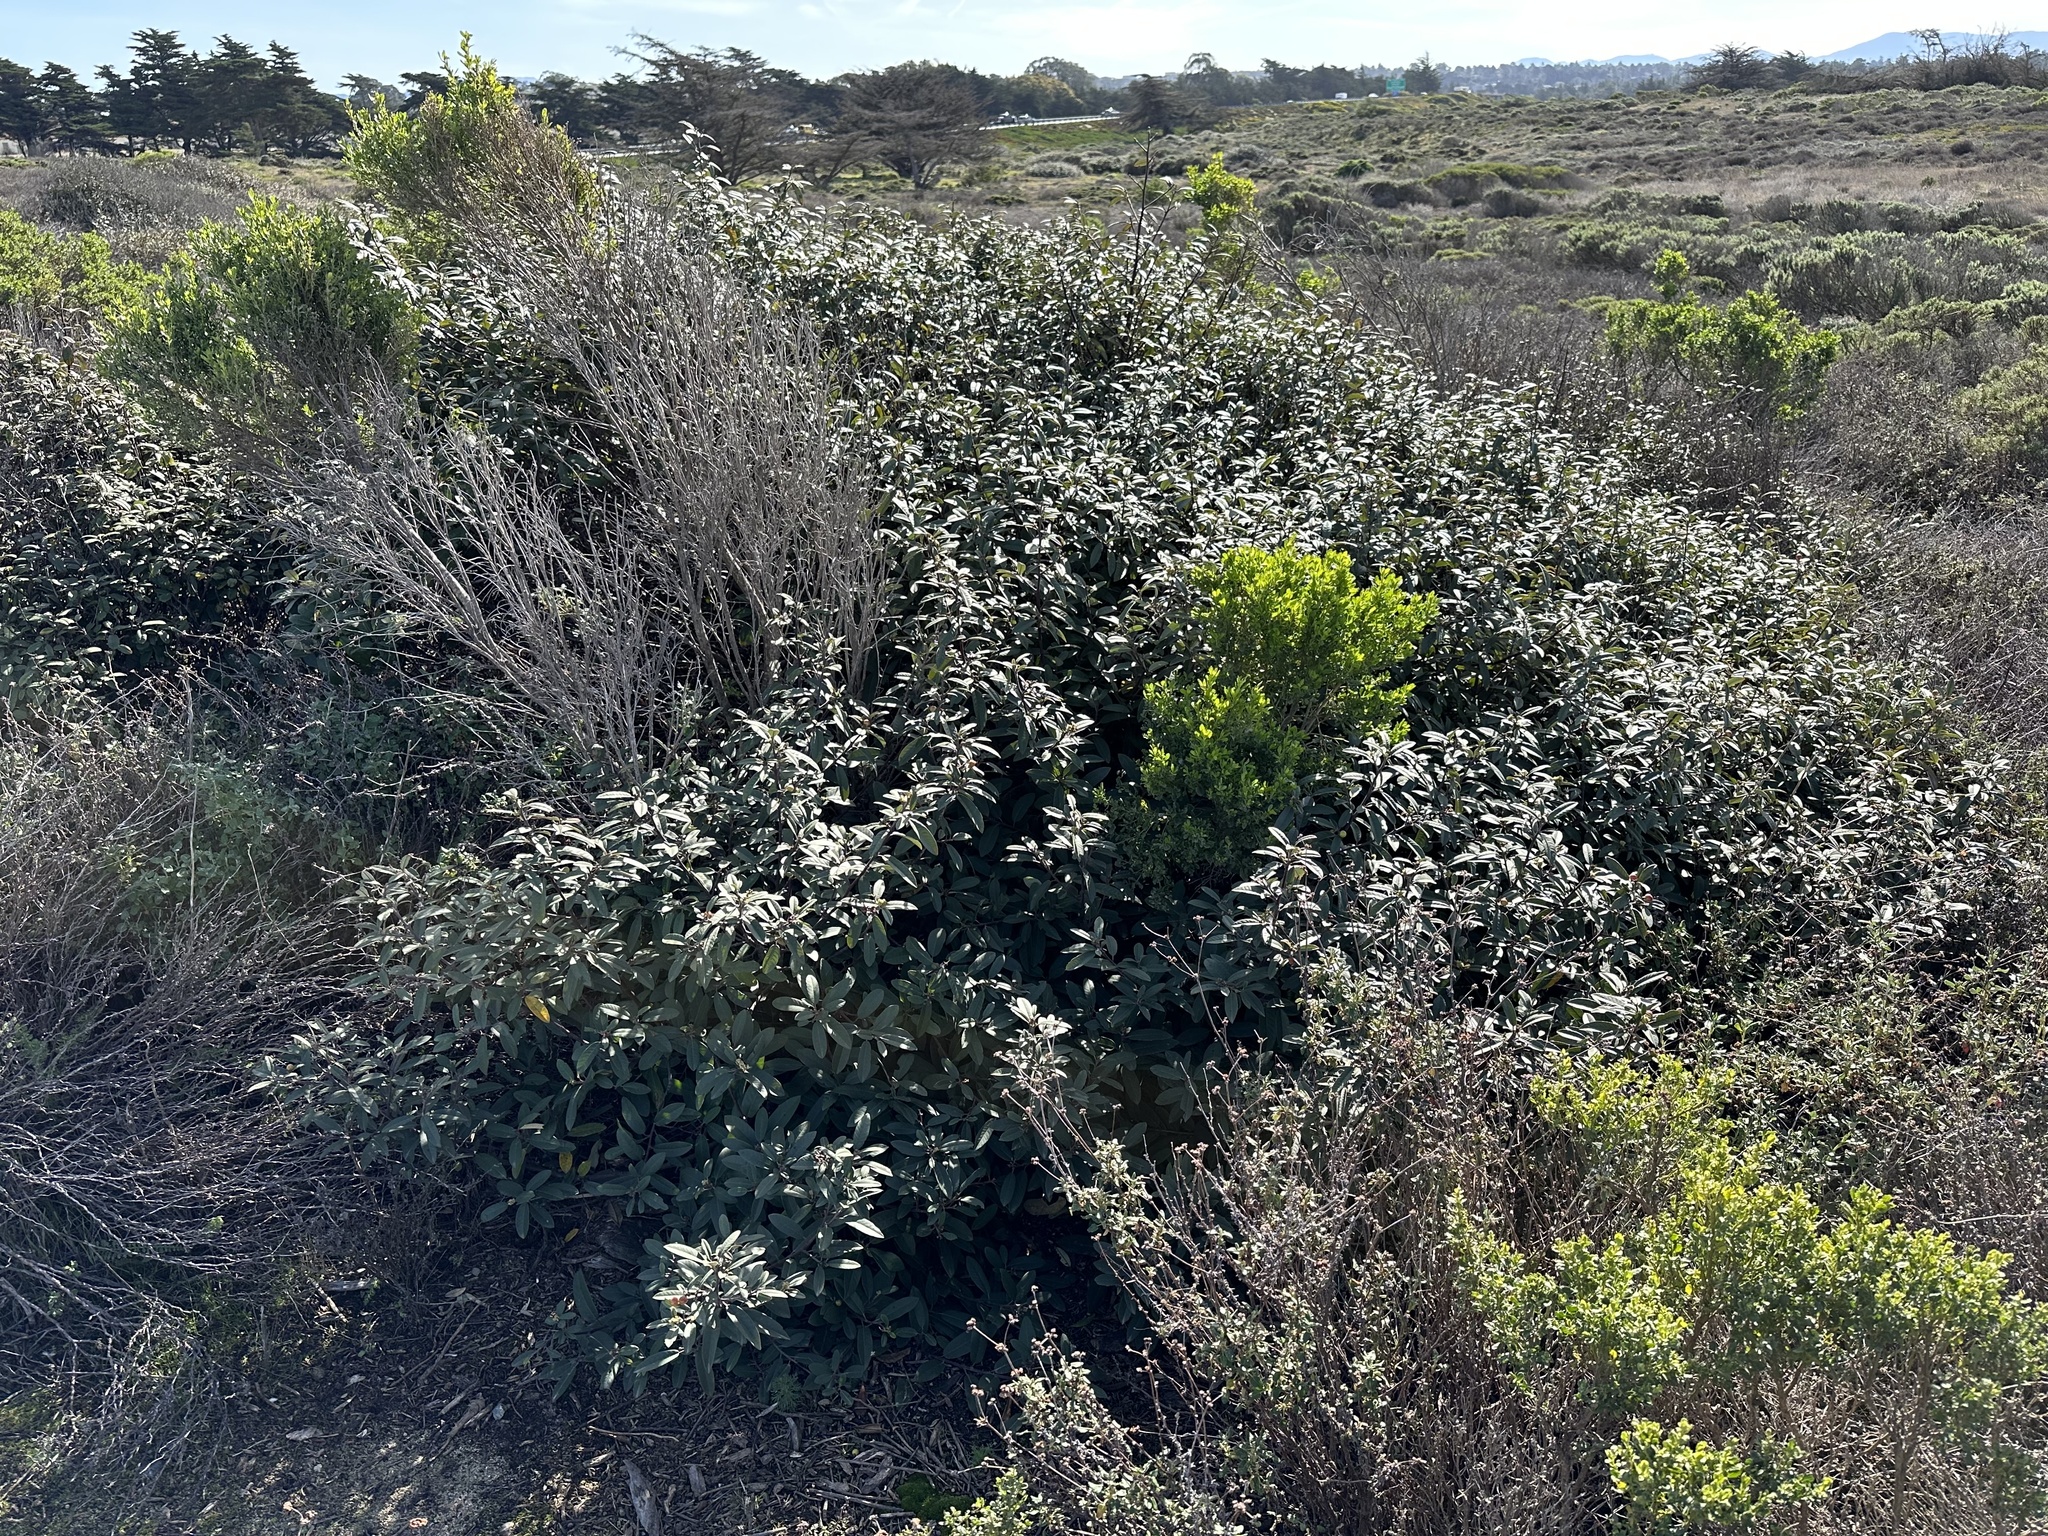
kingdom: Plantae
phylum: Tracheophyta
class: Magnoliopsida
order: Rosales
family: Rhamnaceae
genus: Frangula
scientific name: Frangula californica
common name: California buckthorn
